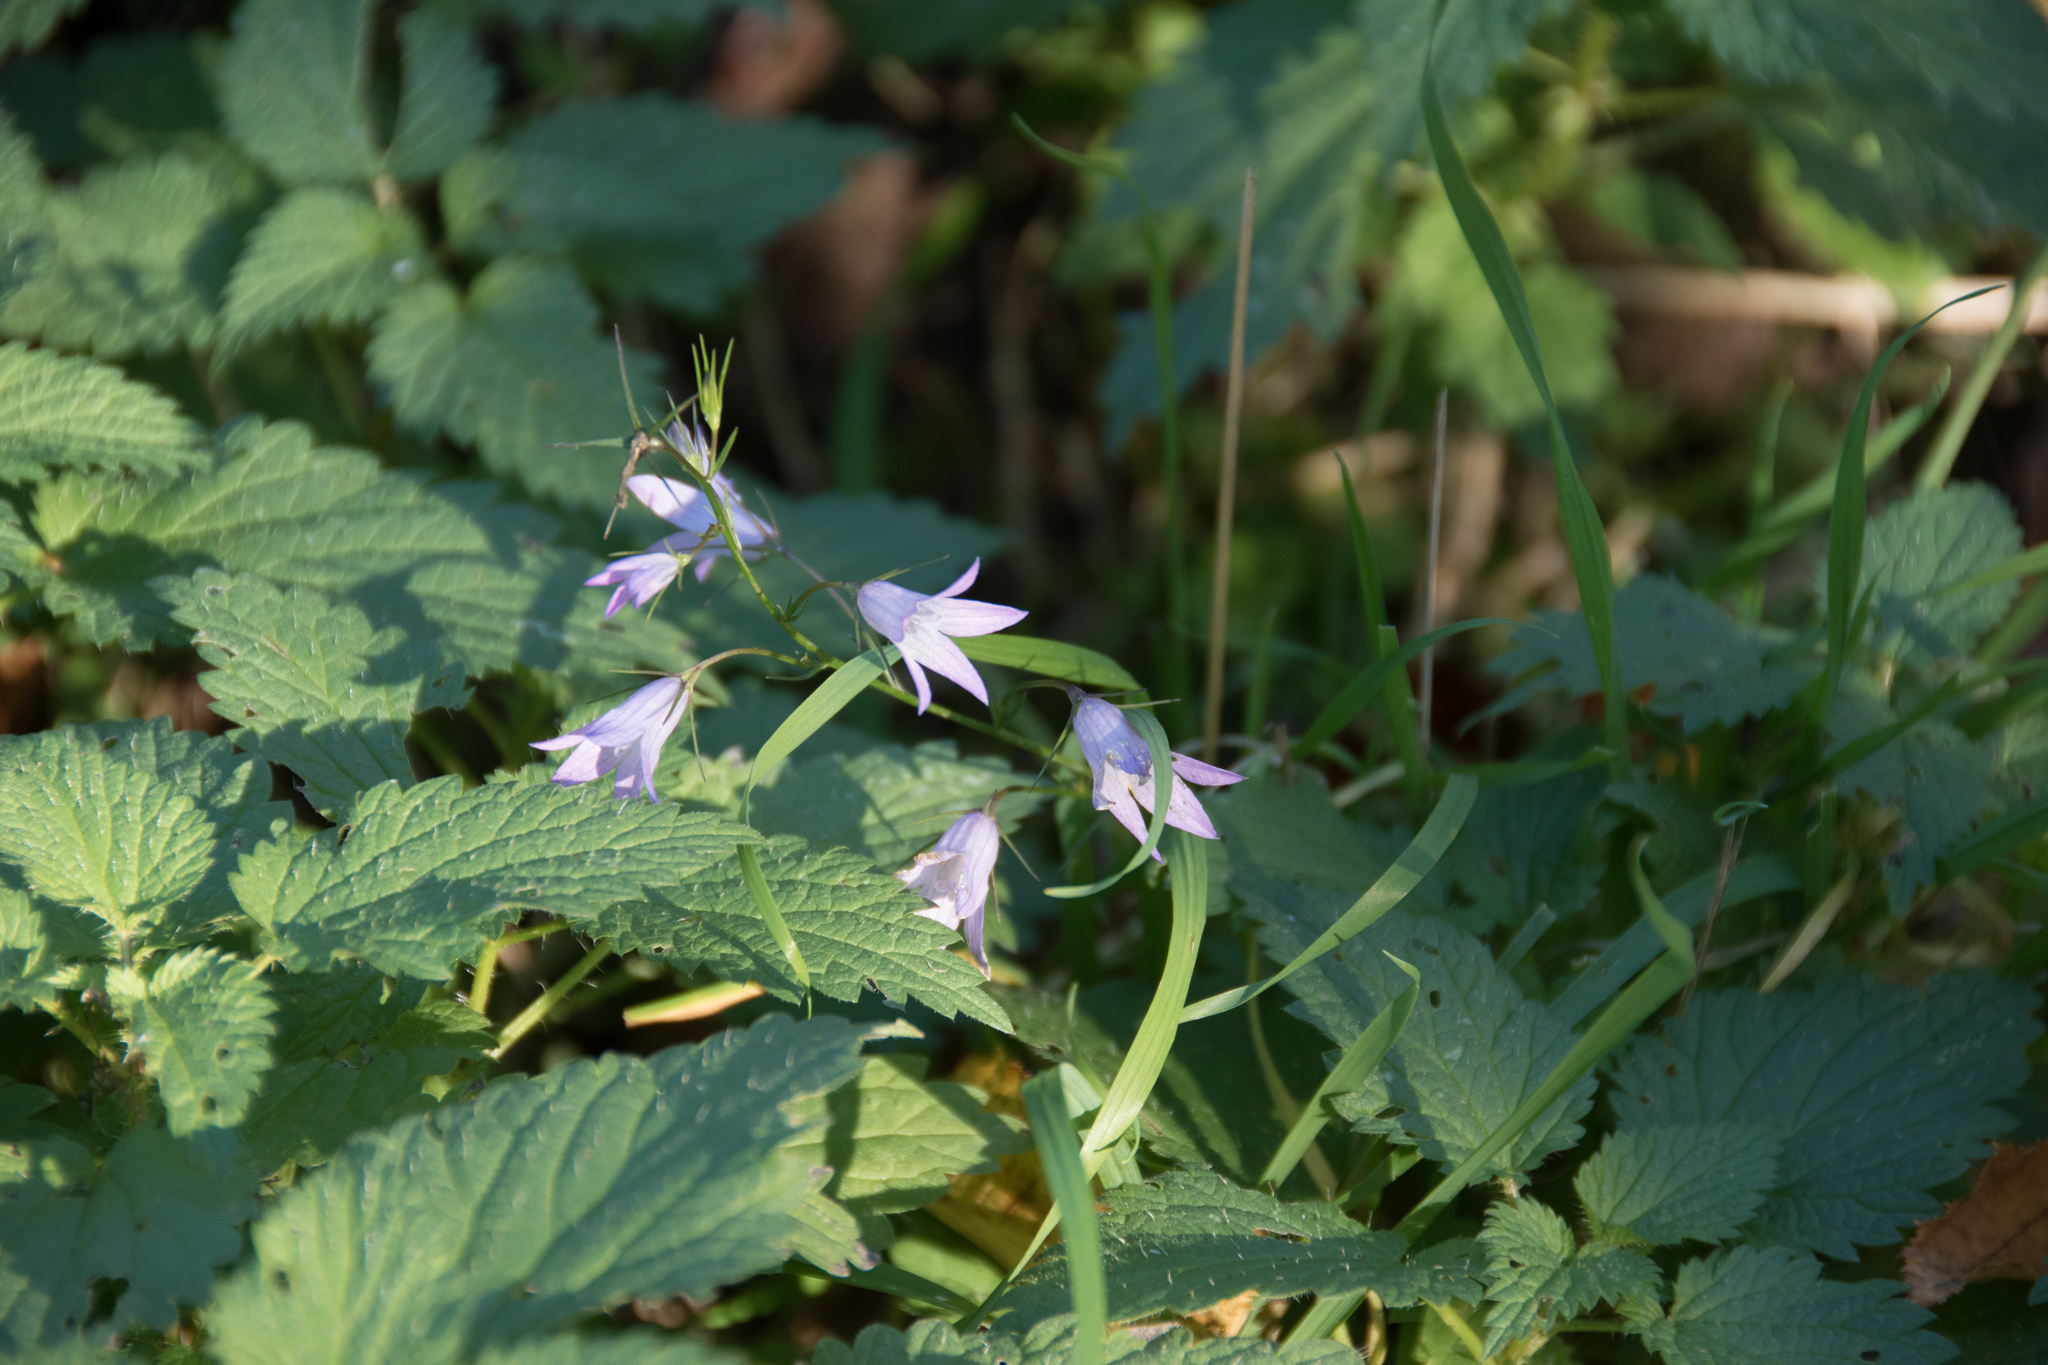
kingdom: Plantae
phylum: Tracheophyta
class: Magnoliopsida
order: Asterales
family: Campanulaceae
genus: Campanula
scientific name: Campanula rapunculus
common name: Rampion bellflower
